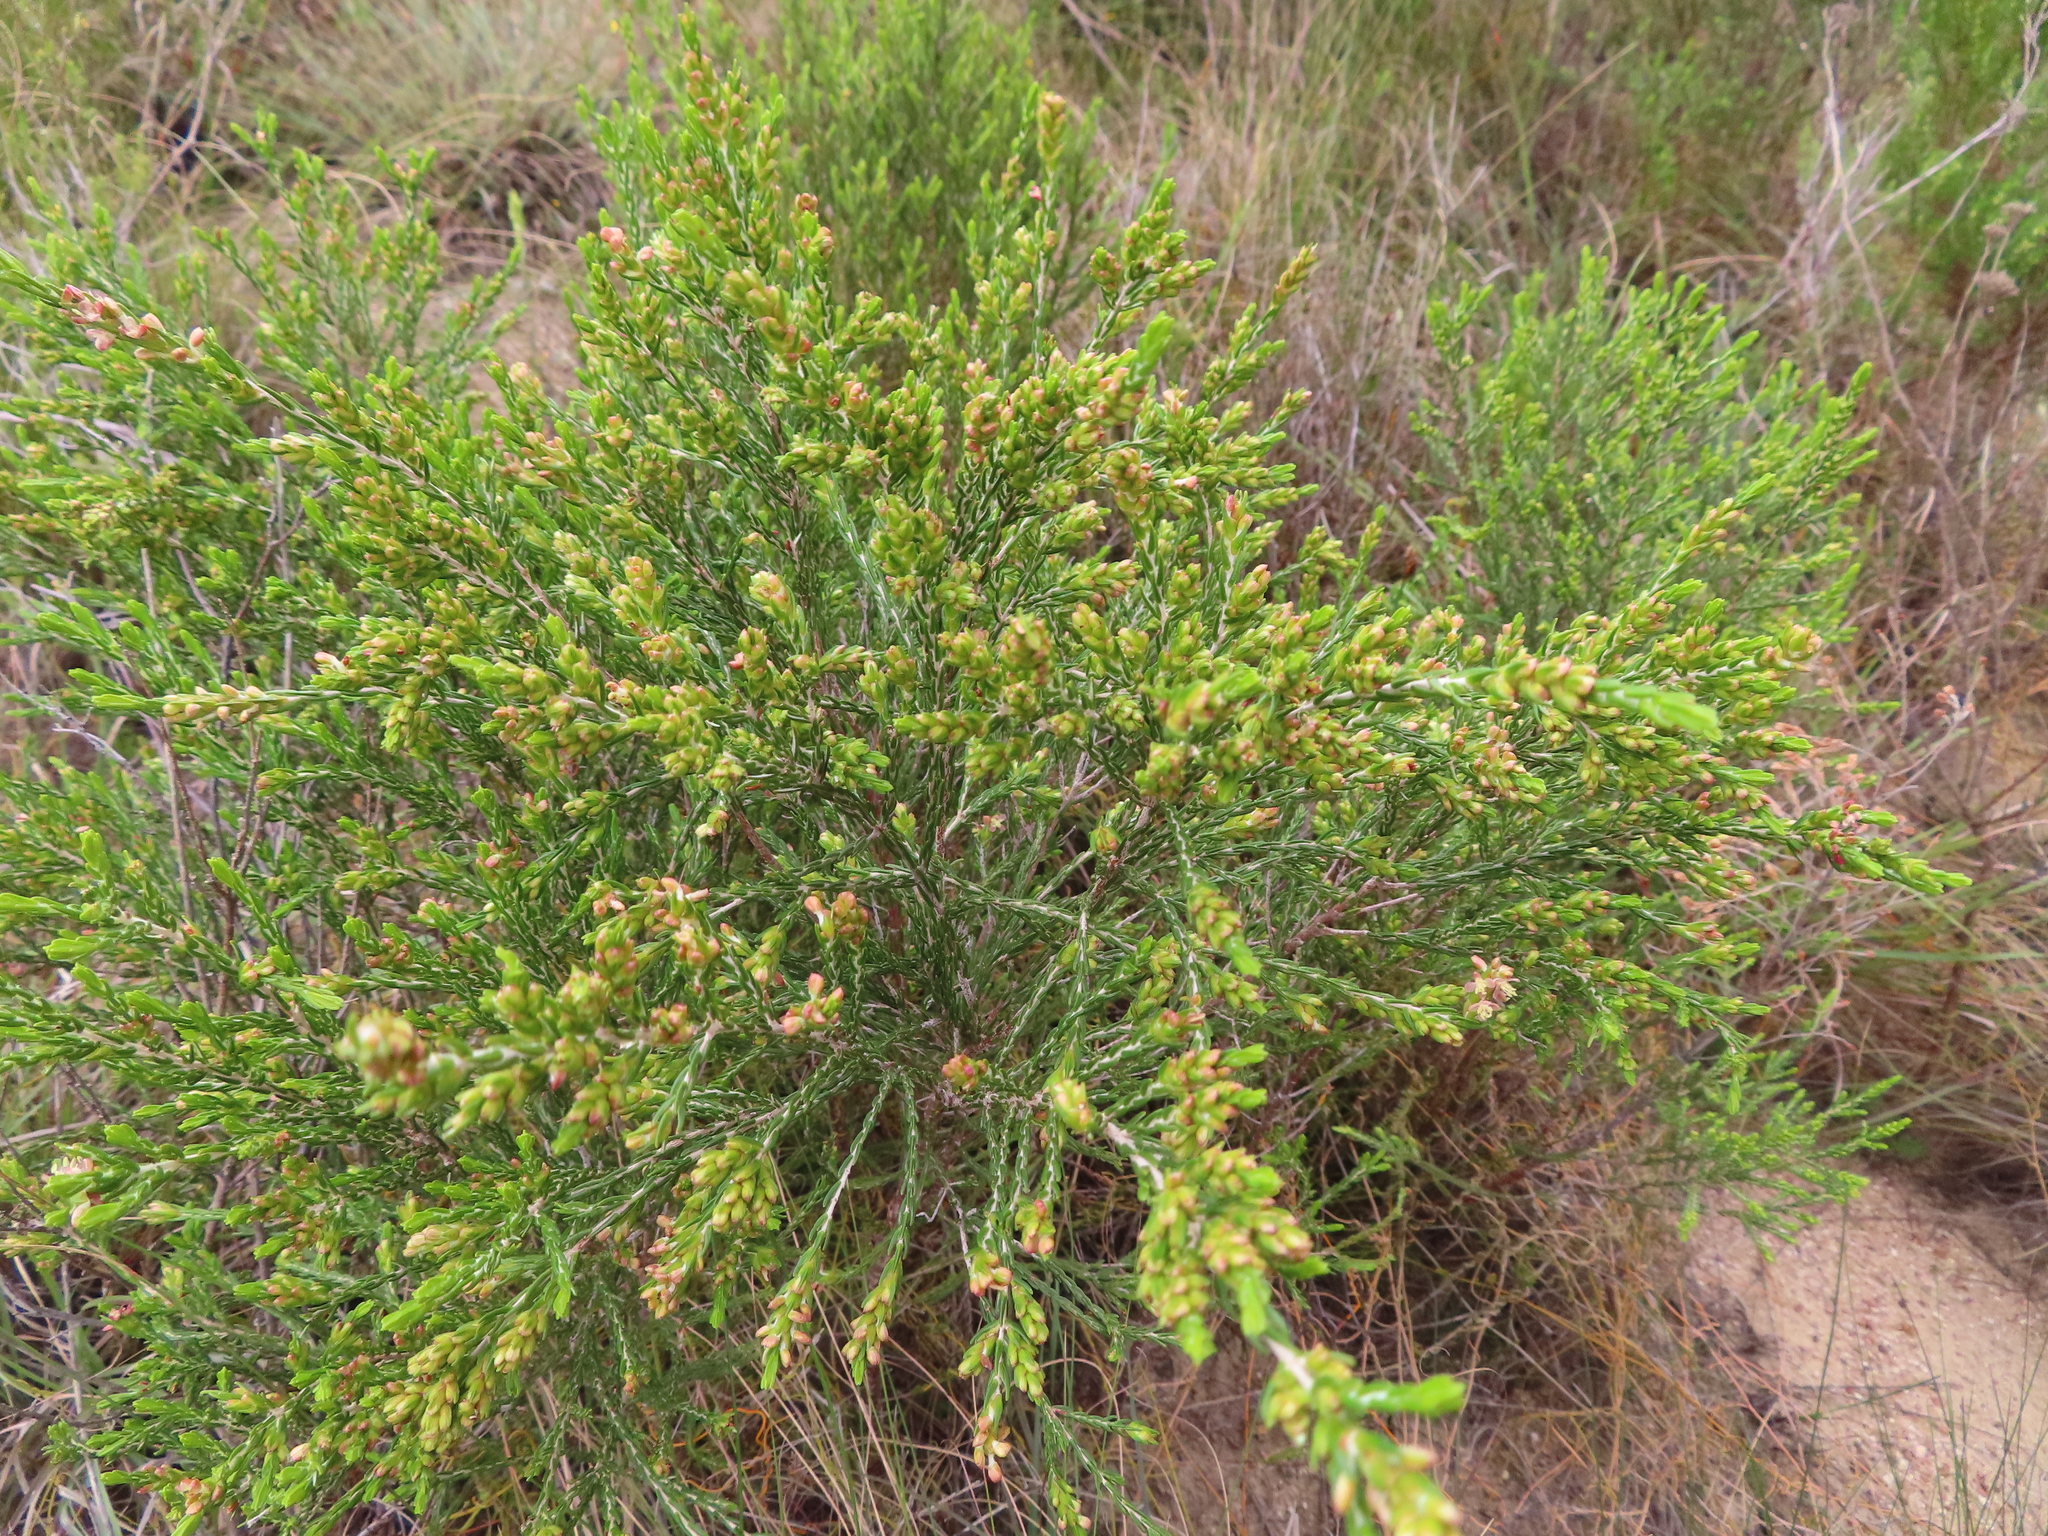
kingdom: Plantae
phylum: Tracheophyta
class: Magnoliopsida
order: Malvales
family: Thymelaeaceae
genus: Passerina
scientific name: Passerina corymbosa
